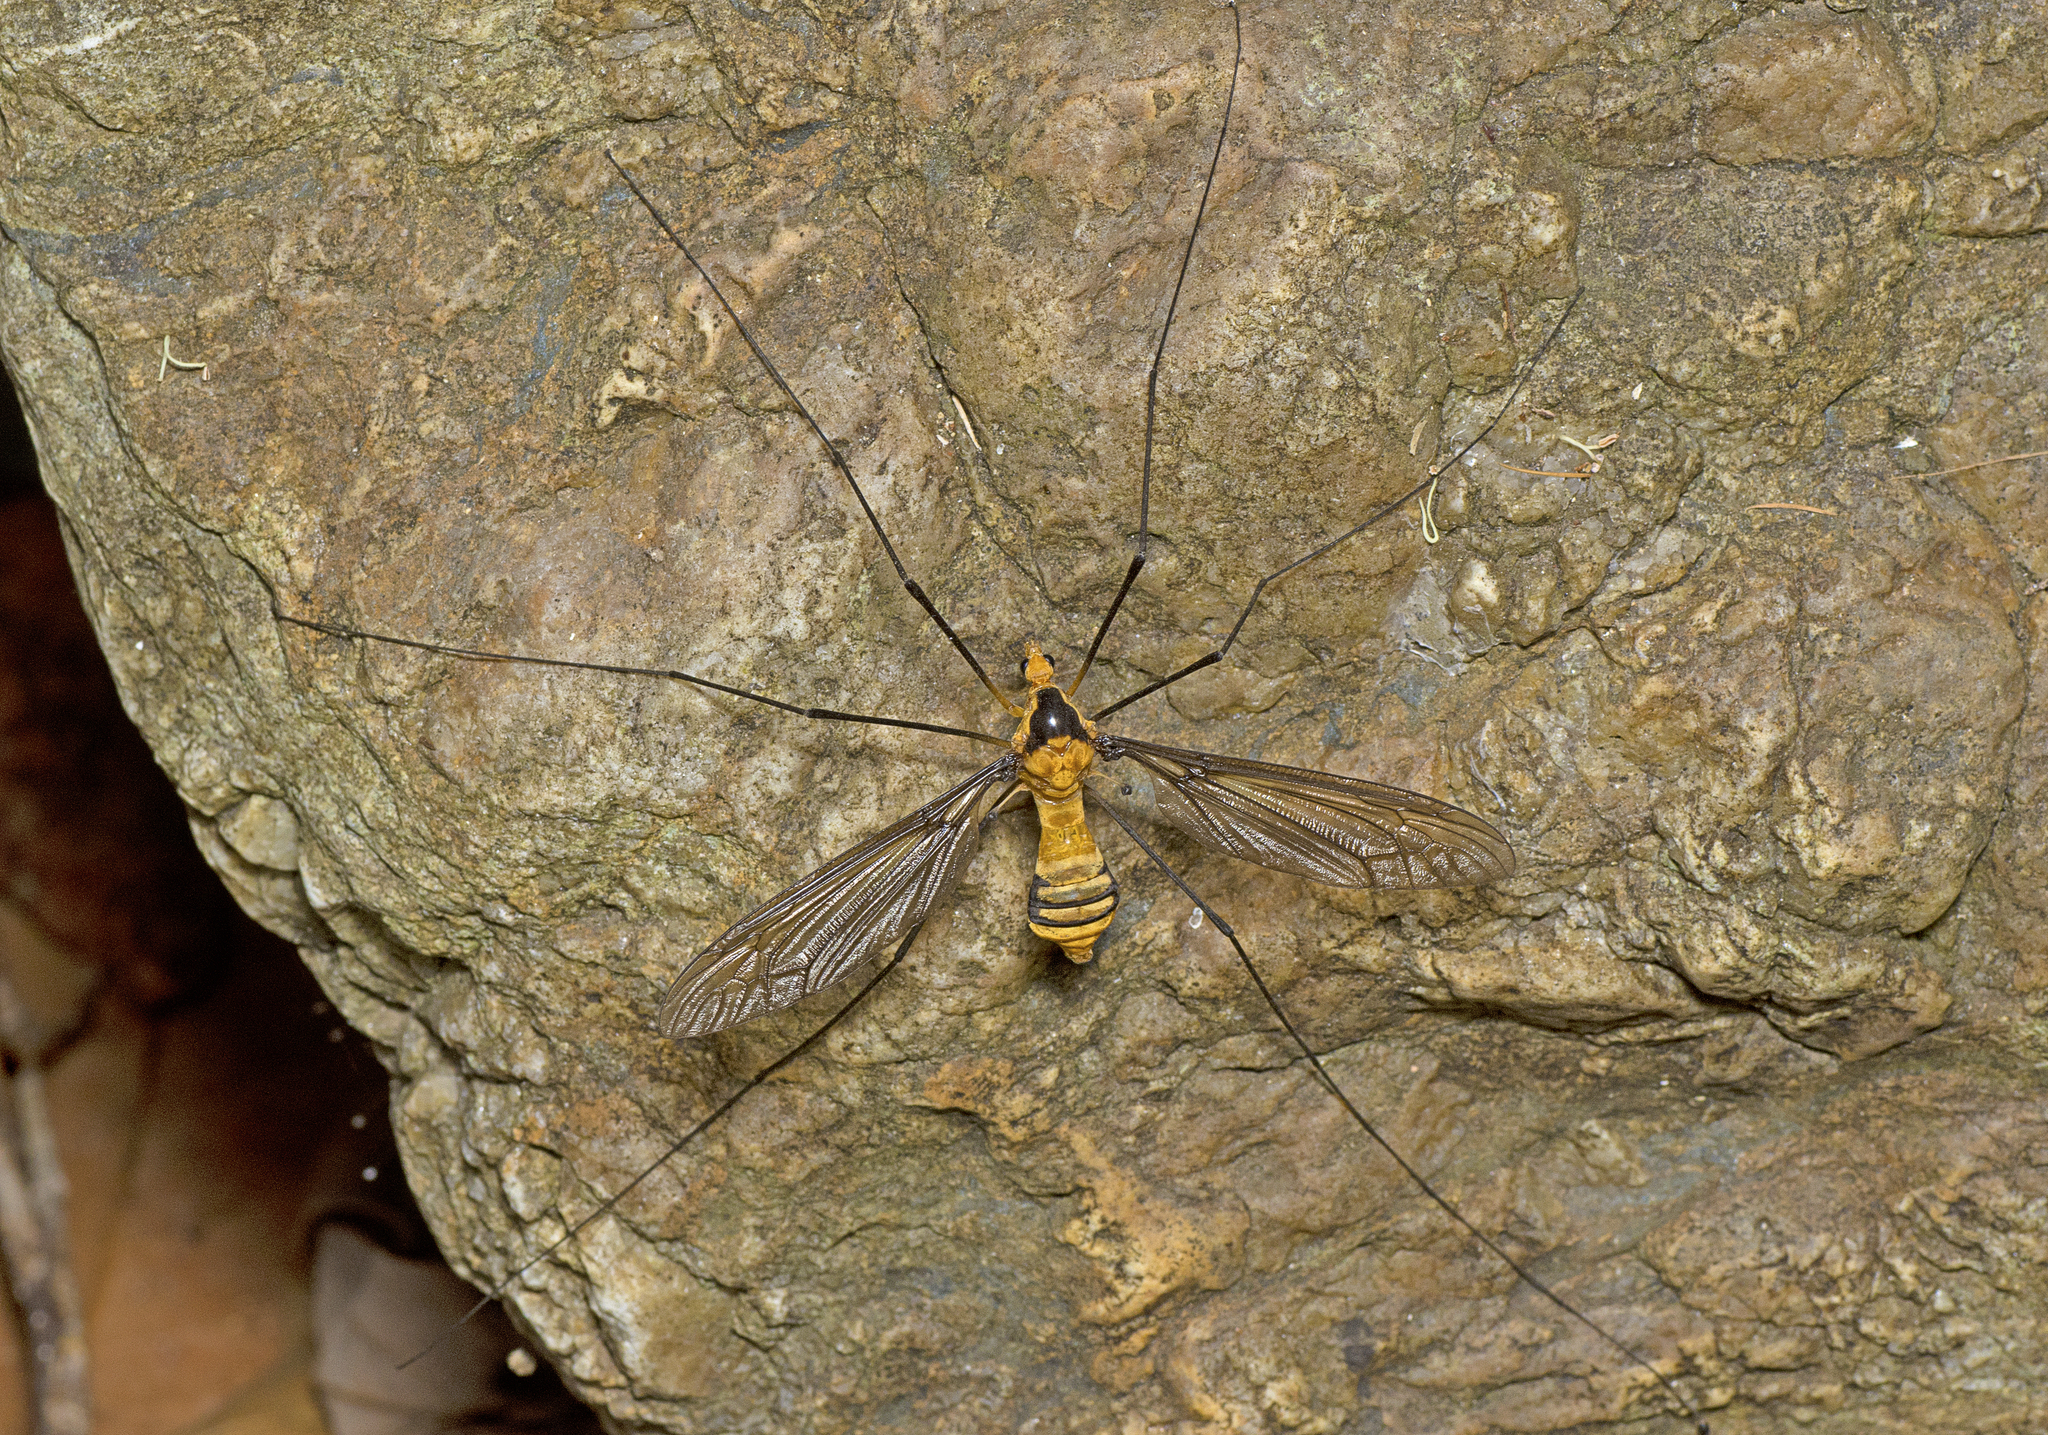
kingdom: Animalia
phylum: Arthropoda
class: Insecta
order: Diptera
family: Tipulidae
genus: Leptotarsus
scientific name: Leptotarsus tricinctus
